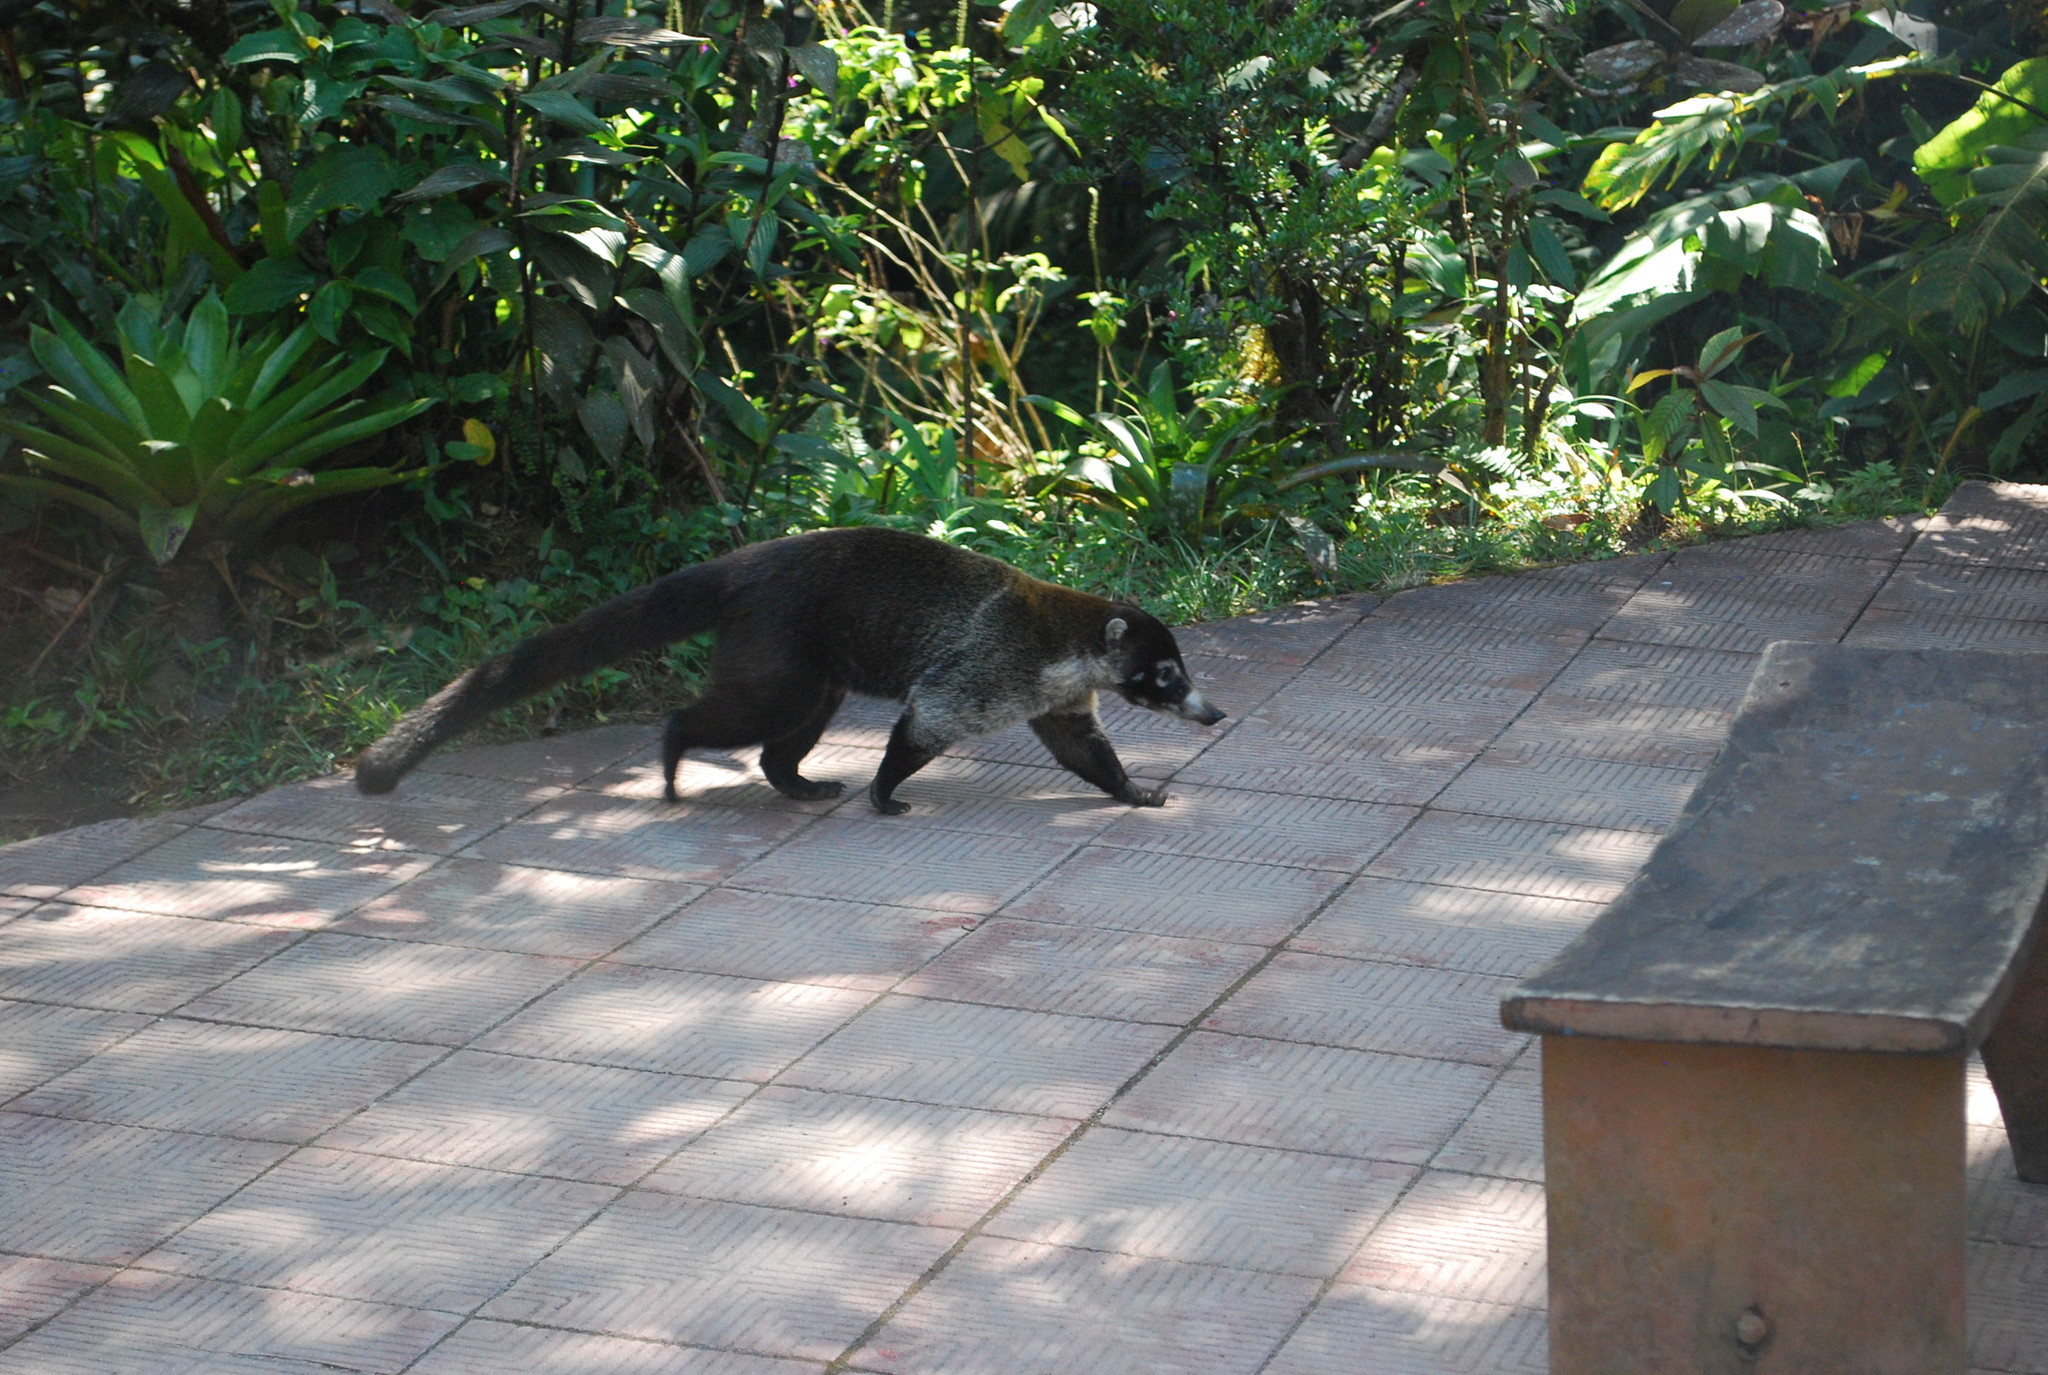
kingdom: Animalia
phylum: Chordata
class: Mammalia
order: Carnivora
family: Procyonidae
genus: Nasua
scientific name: Nasua narica
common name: White-nosed coati
